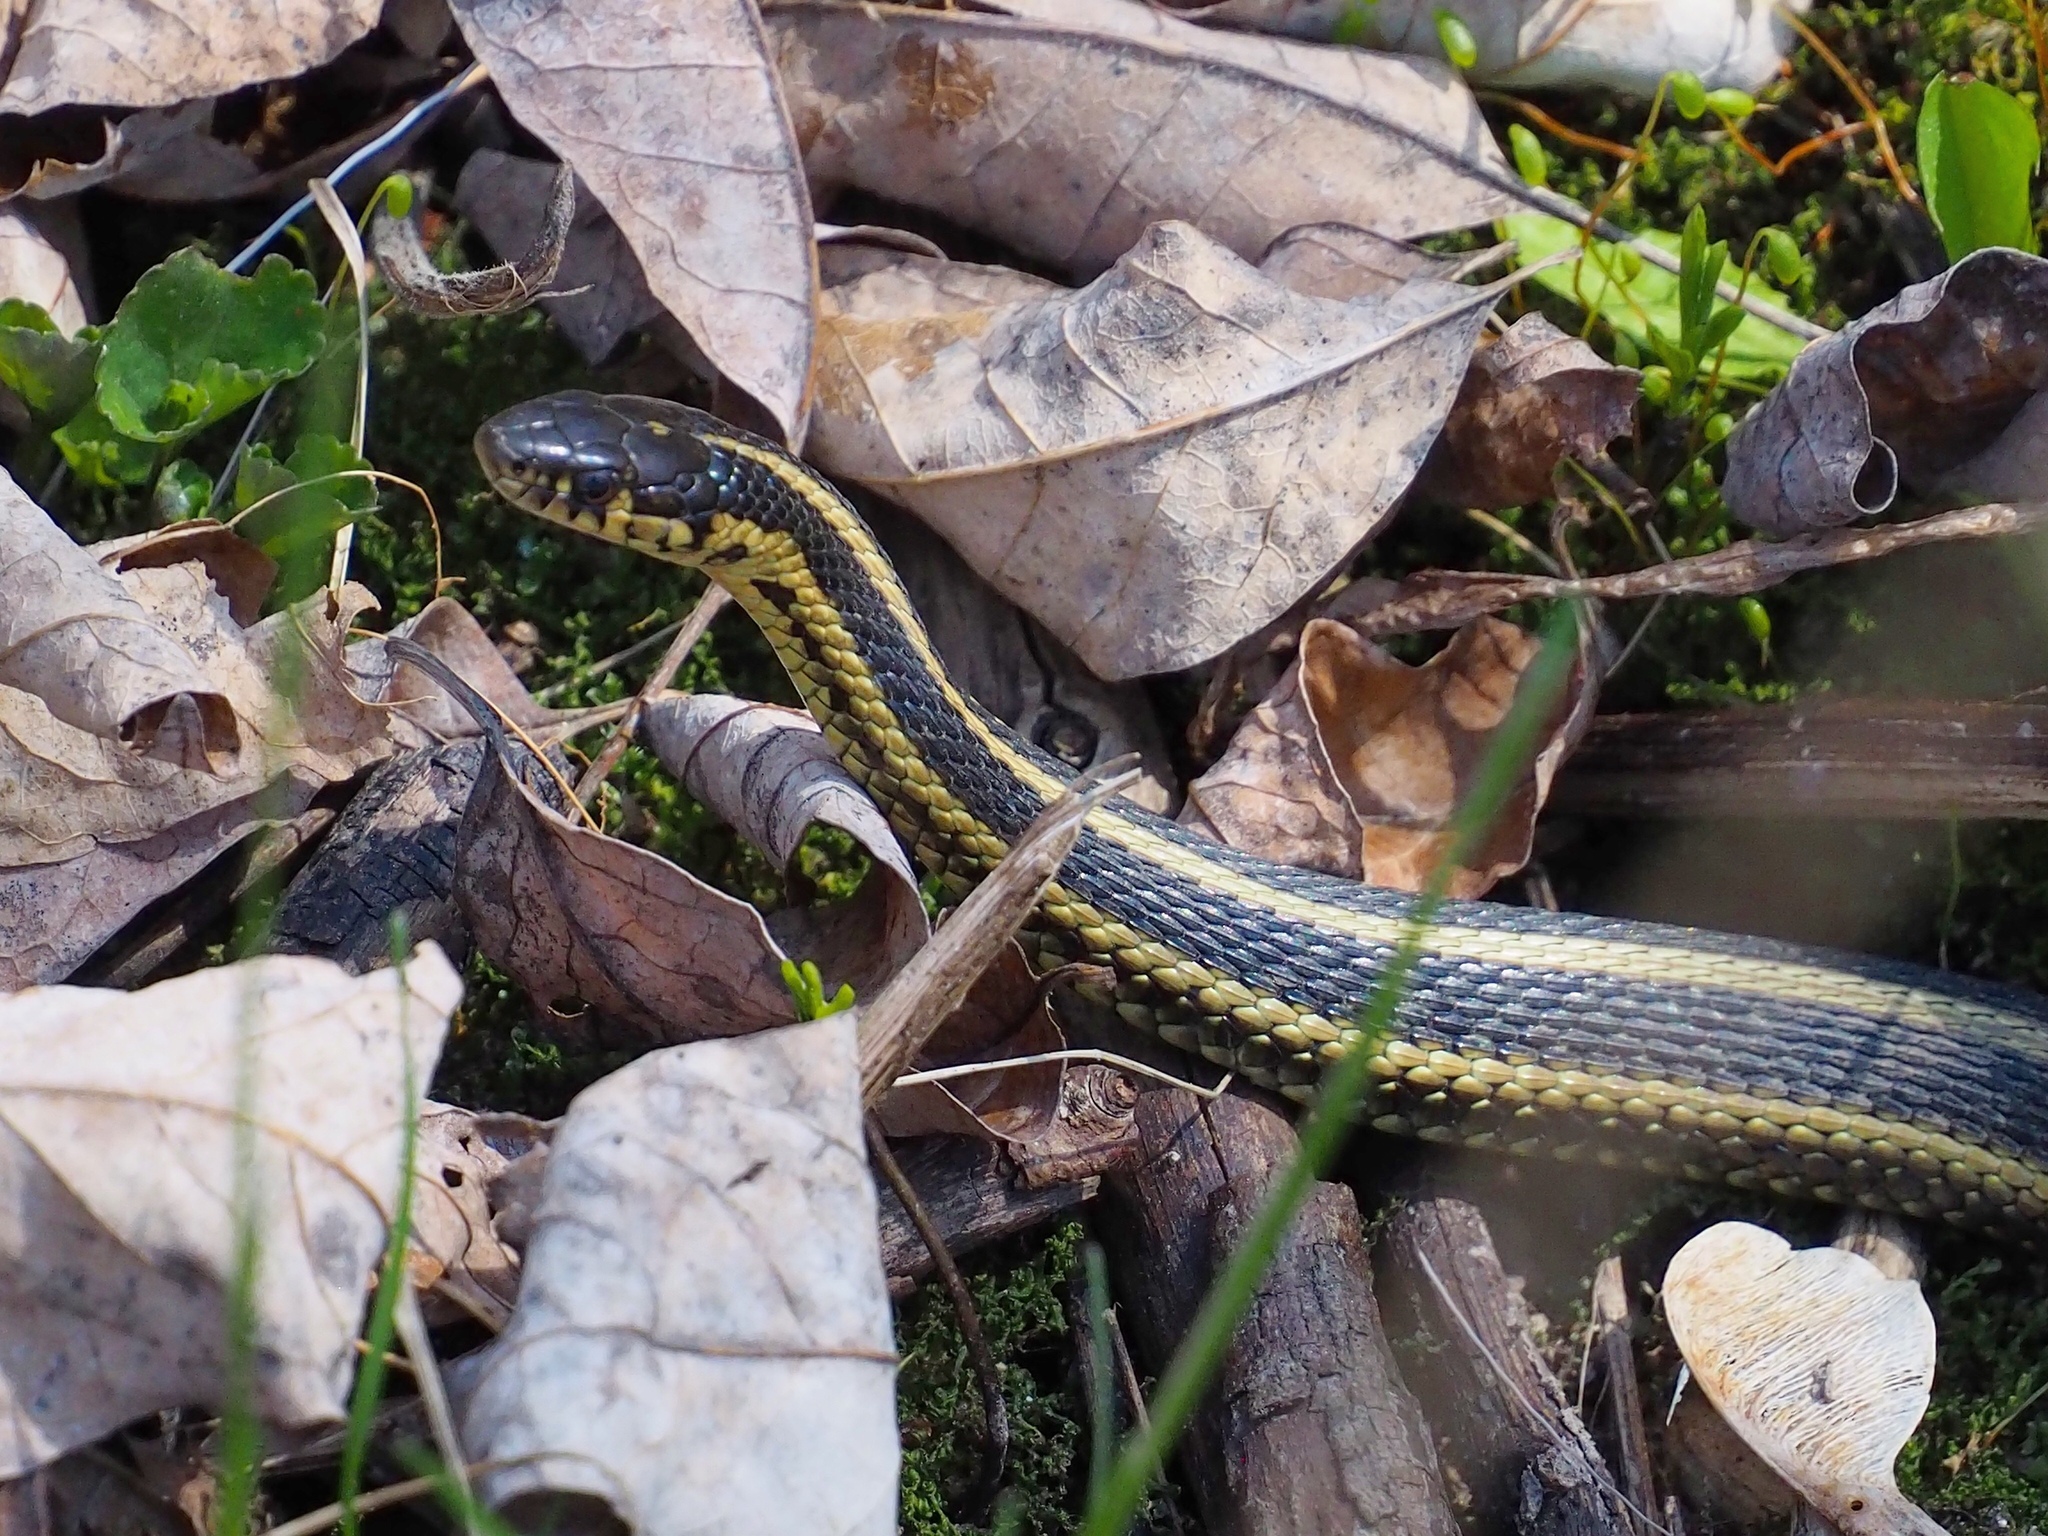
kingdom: Animalia
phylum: Chordata
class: Squamata
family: Colubridae
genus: Thamnophis
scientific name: Thamnophis butleri
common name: Butler's garter snake
